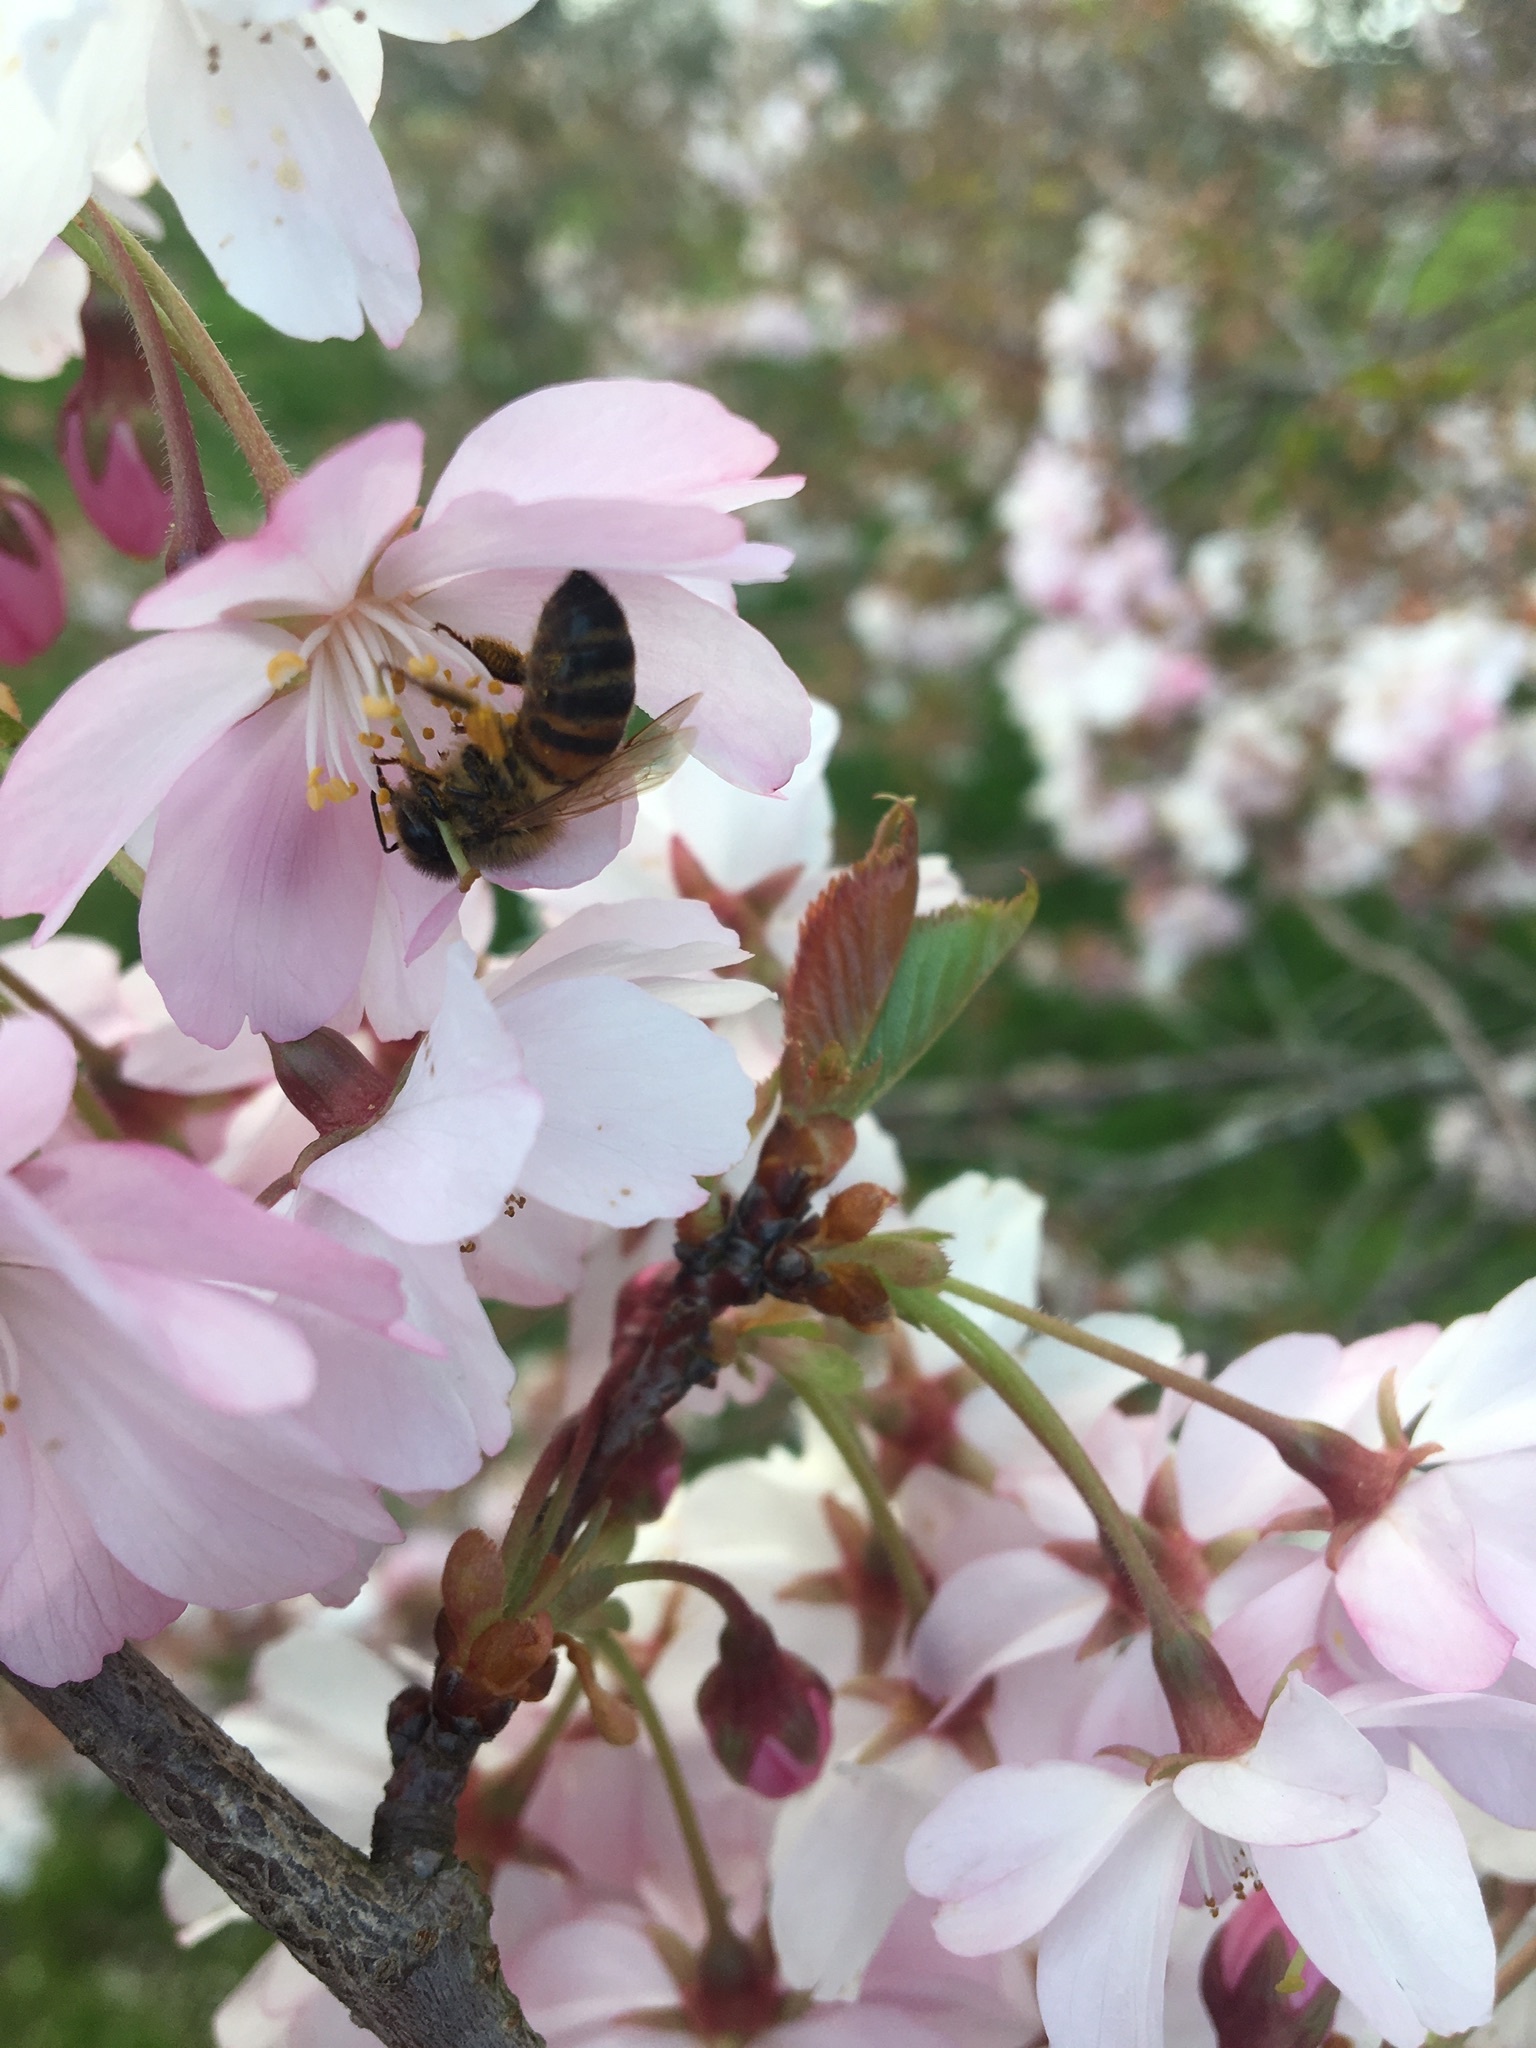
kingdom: Animalia
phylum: Arthropoda
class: Insecta
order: Hymenoptera
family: Apidae
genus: Apis
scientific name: Apis mellifera
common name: Honey bee
